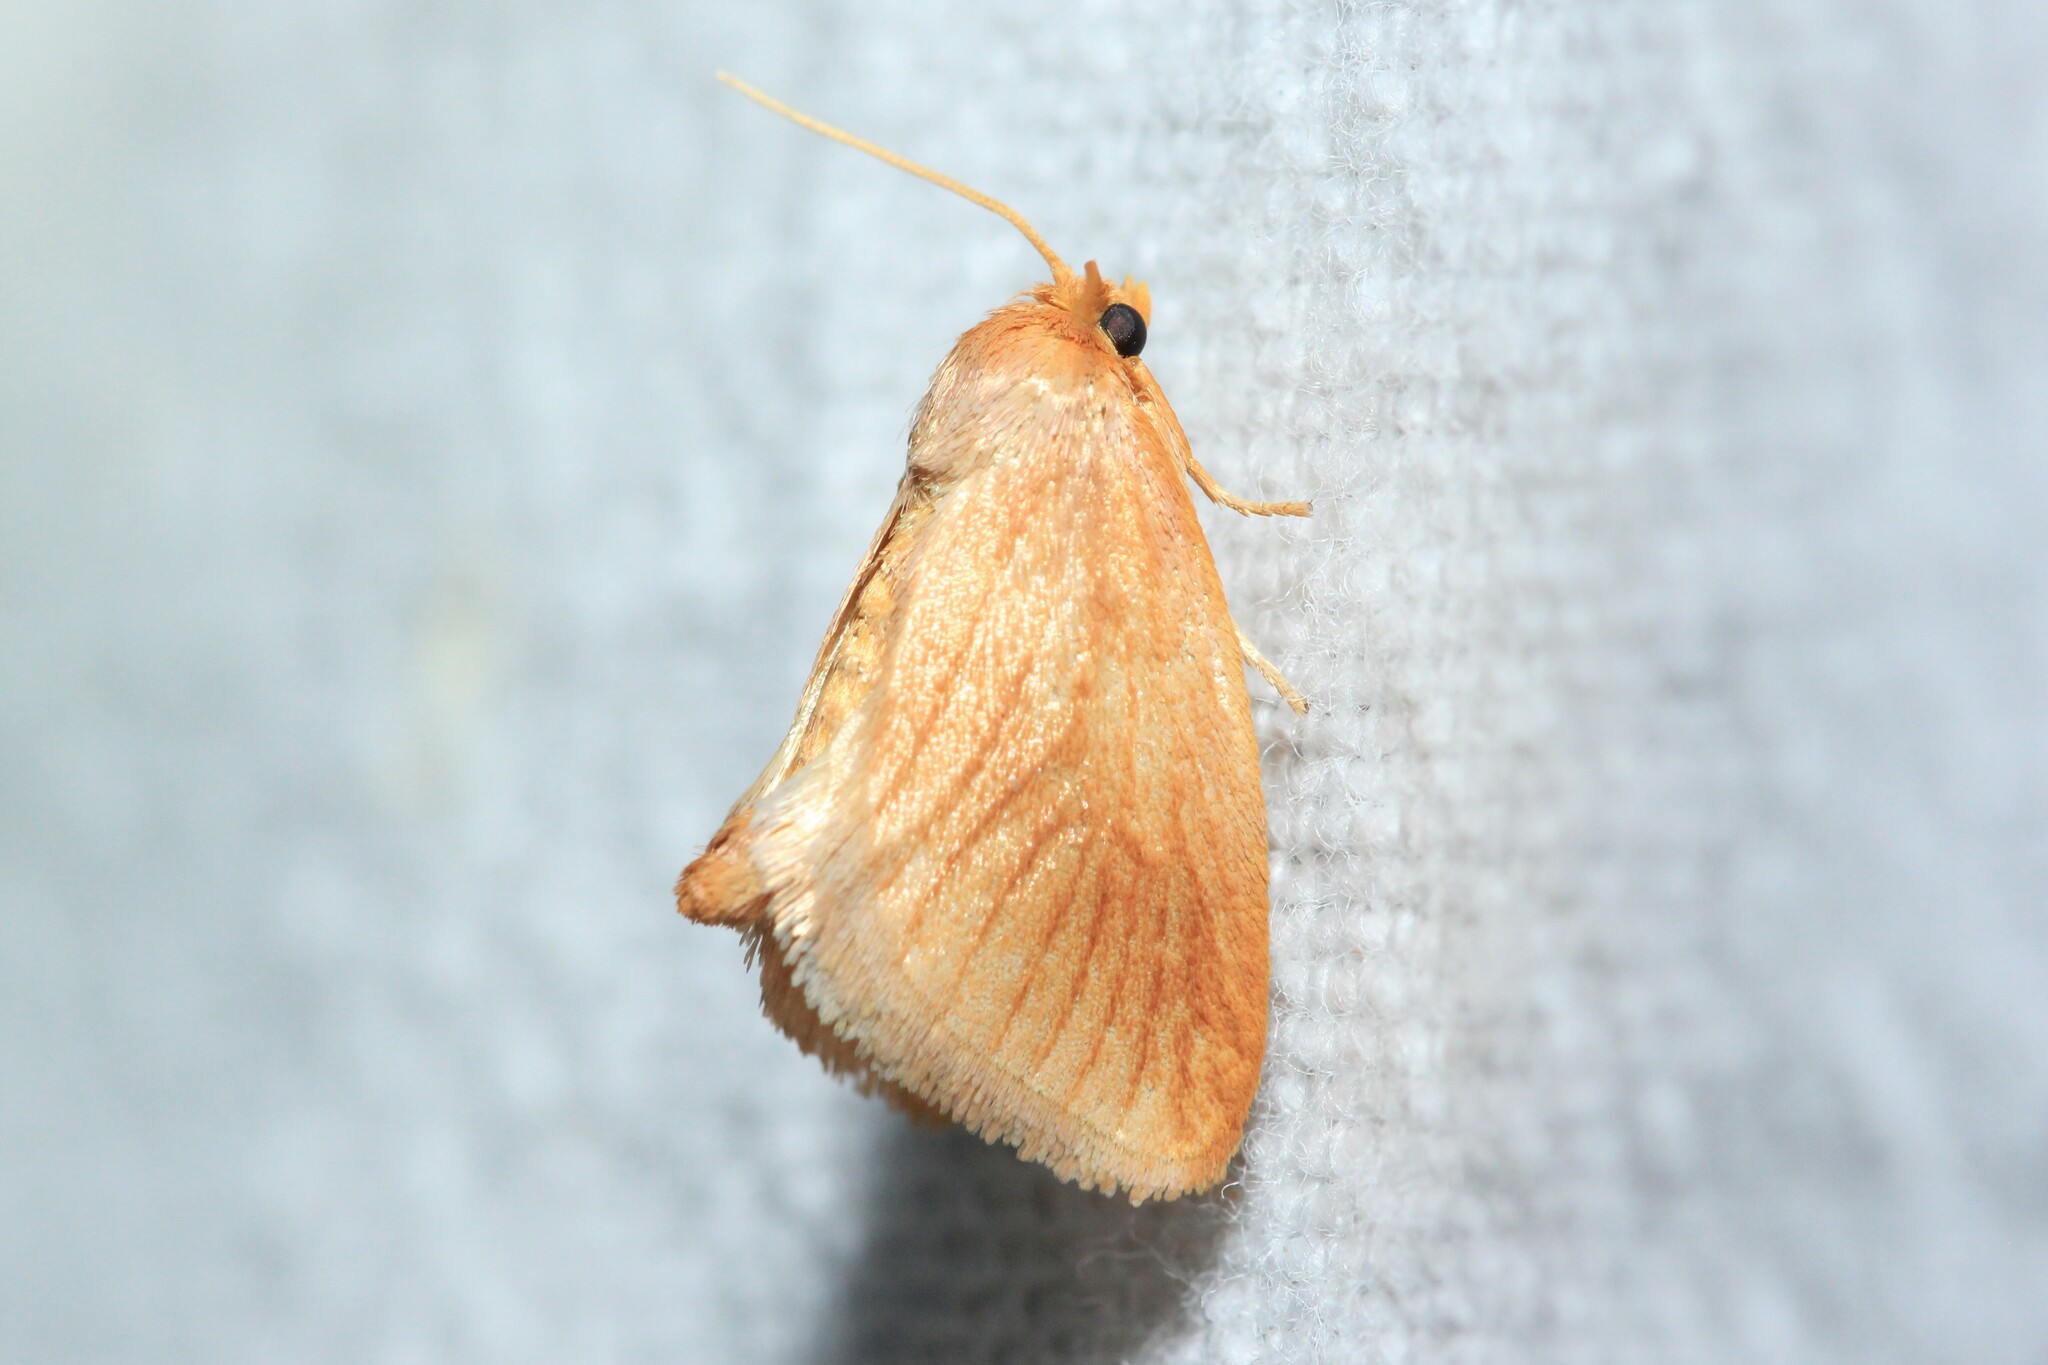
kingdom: Animalia
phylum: Arthropoda
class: Insecta
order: Lepidoptera
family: Limacodidae
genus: Tortricidia
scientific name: Tortricidia testacea
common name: Early button slug moth
